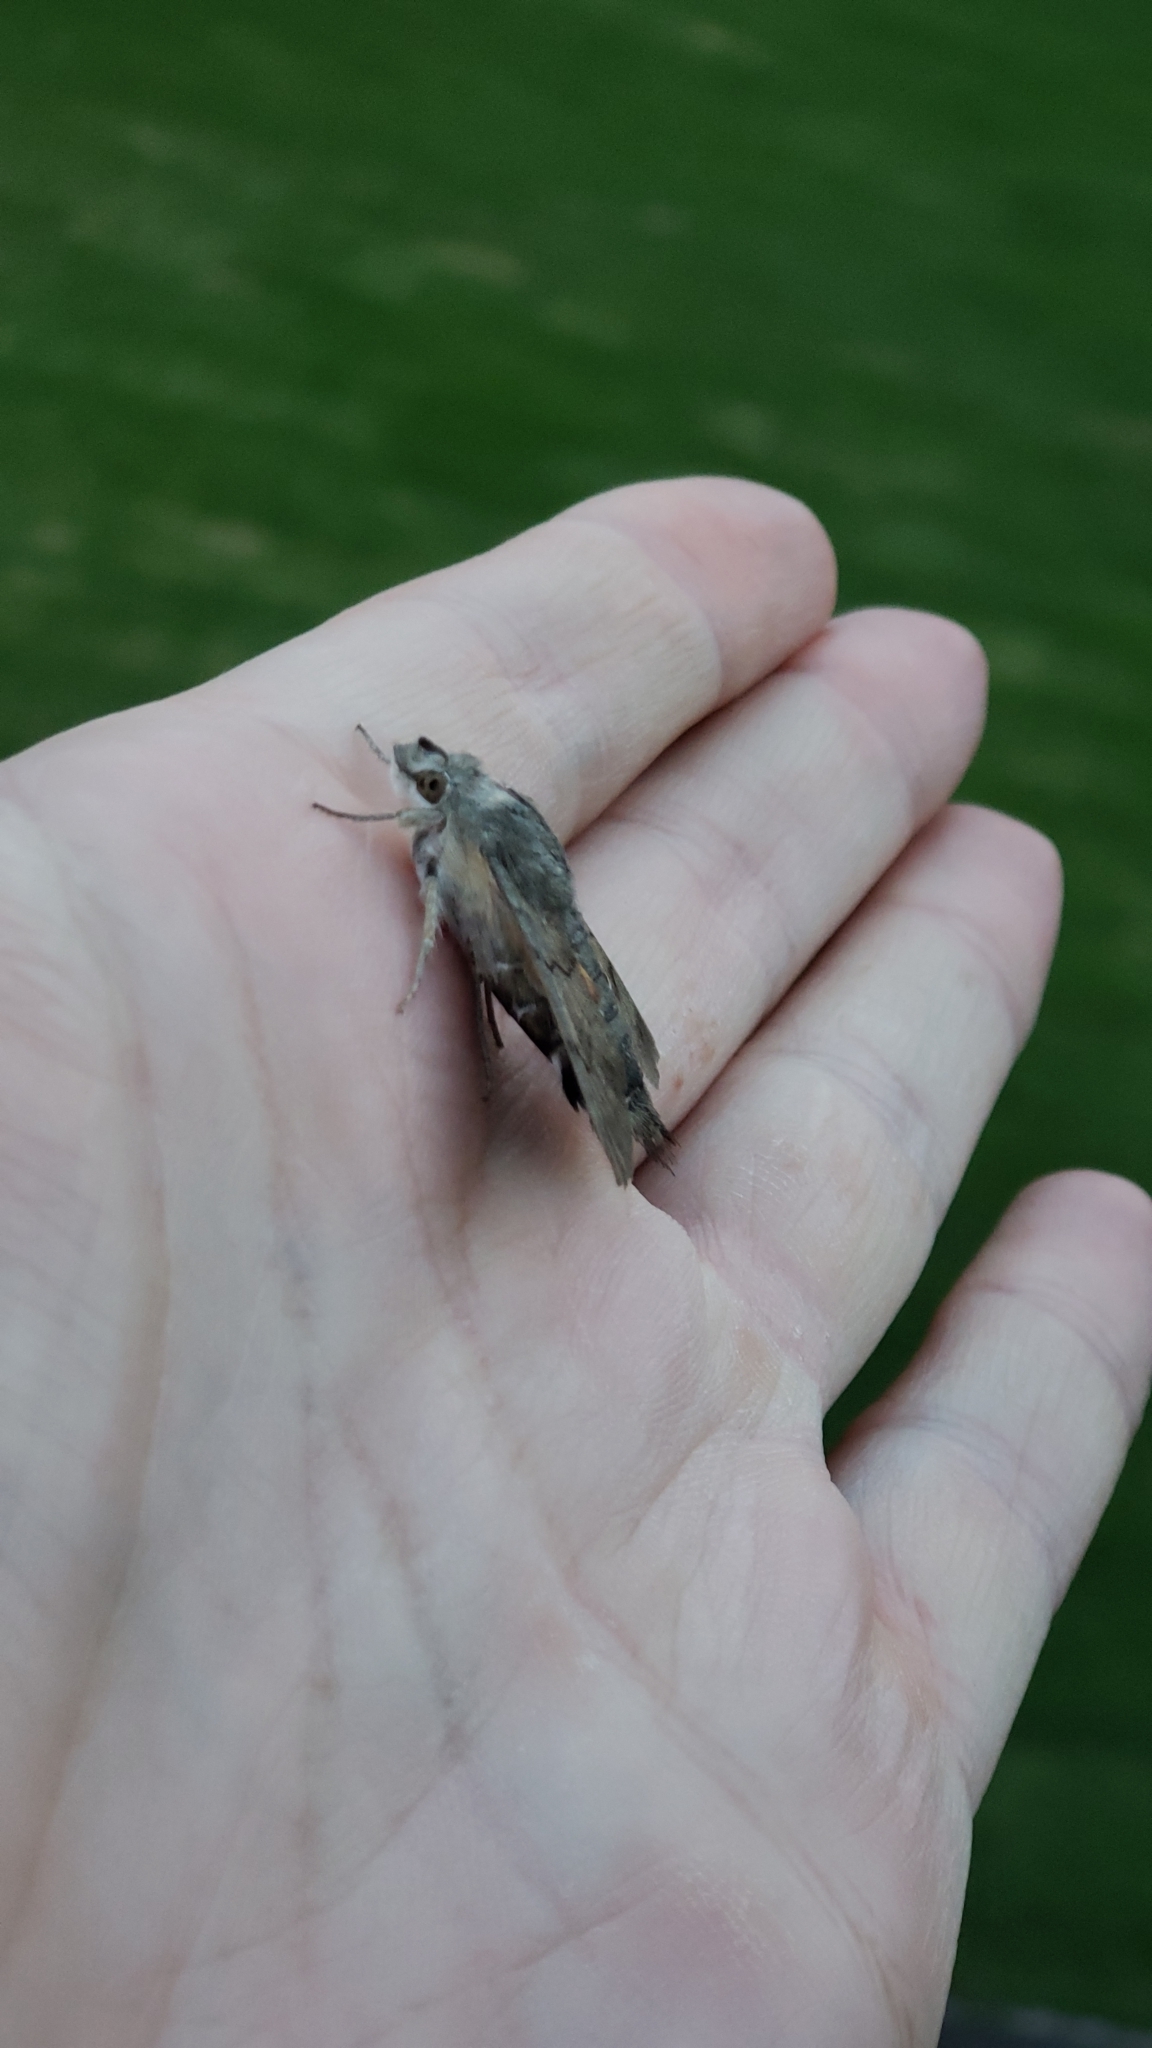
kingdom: Animalia
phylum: Arthropoda
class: Insecta
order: Lepidoptera
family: Sphingidae
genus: Macroglossum
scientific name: Macroglossum stellatarum
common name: Humming-bird hawk-moth
